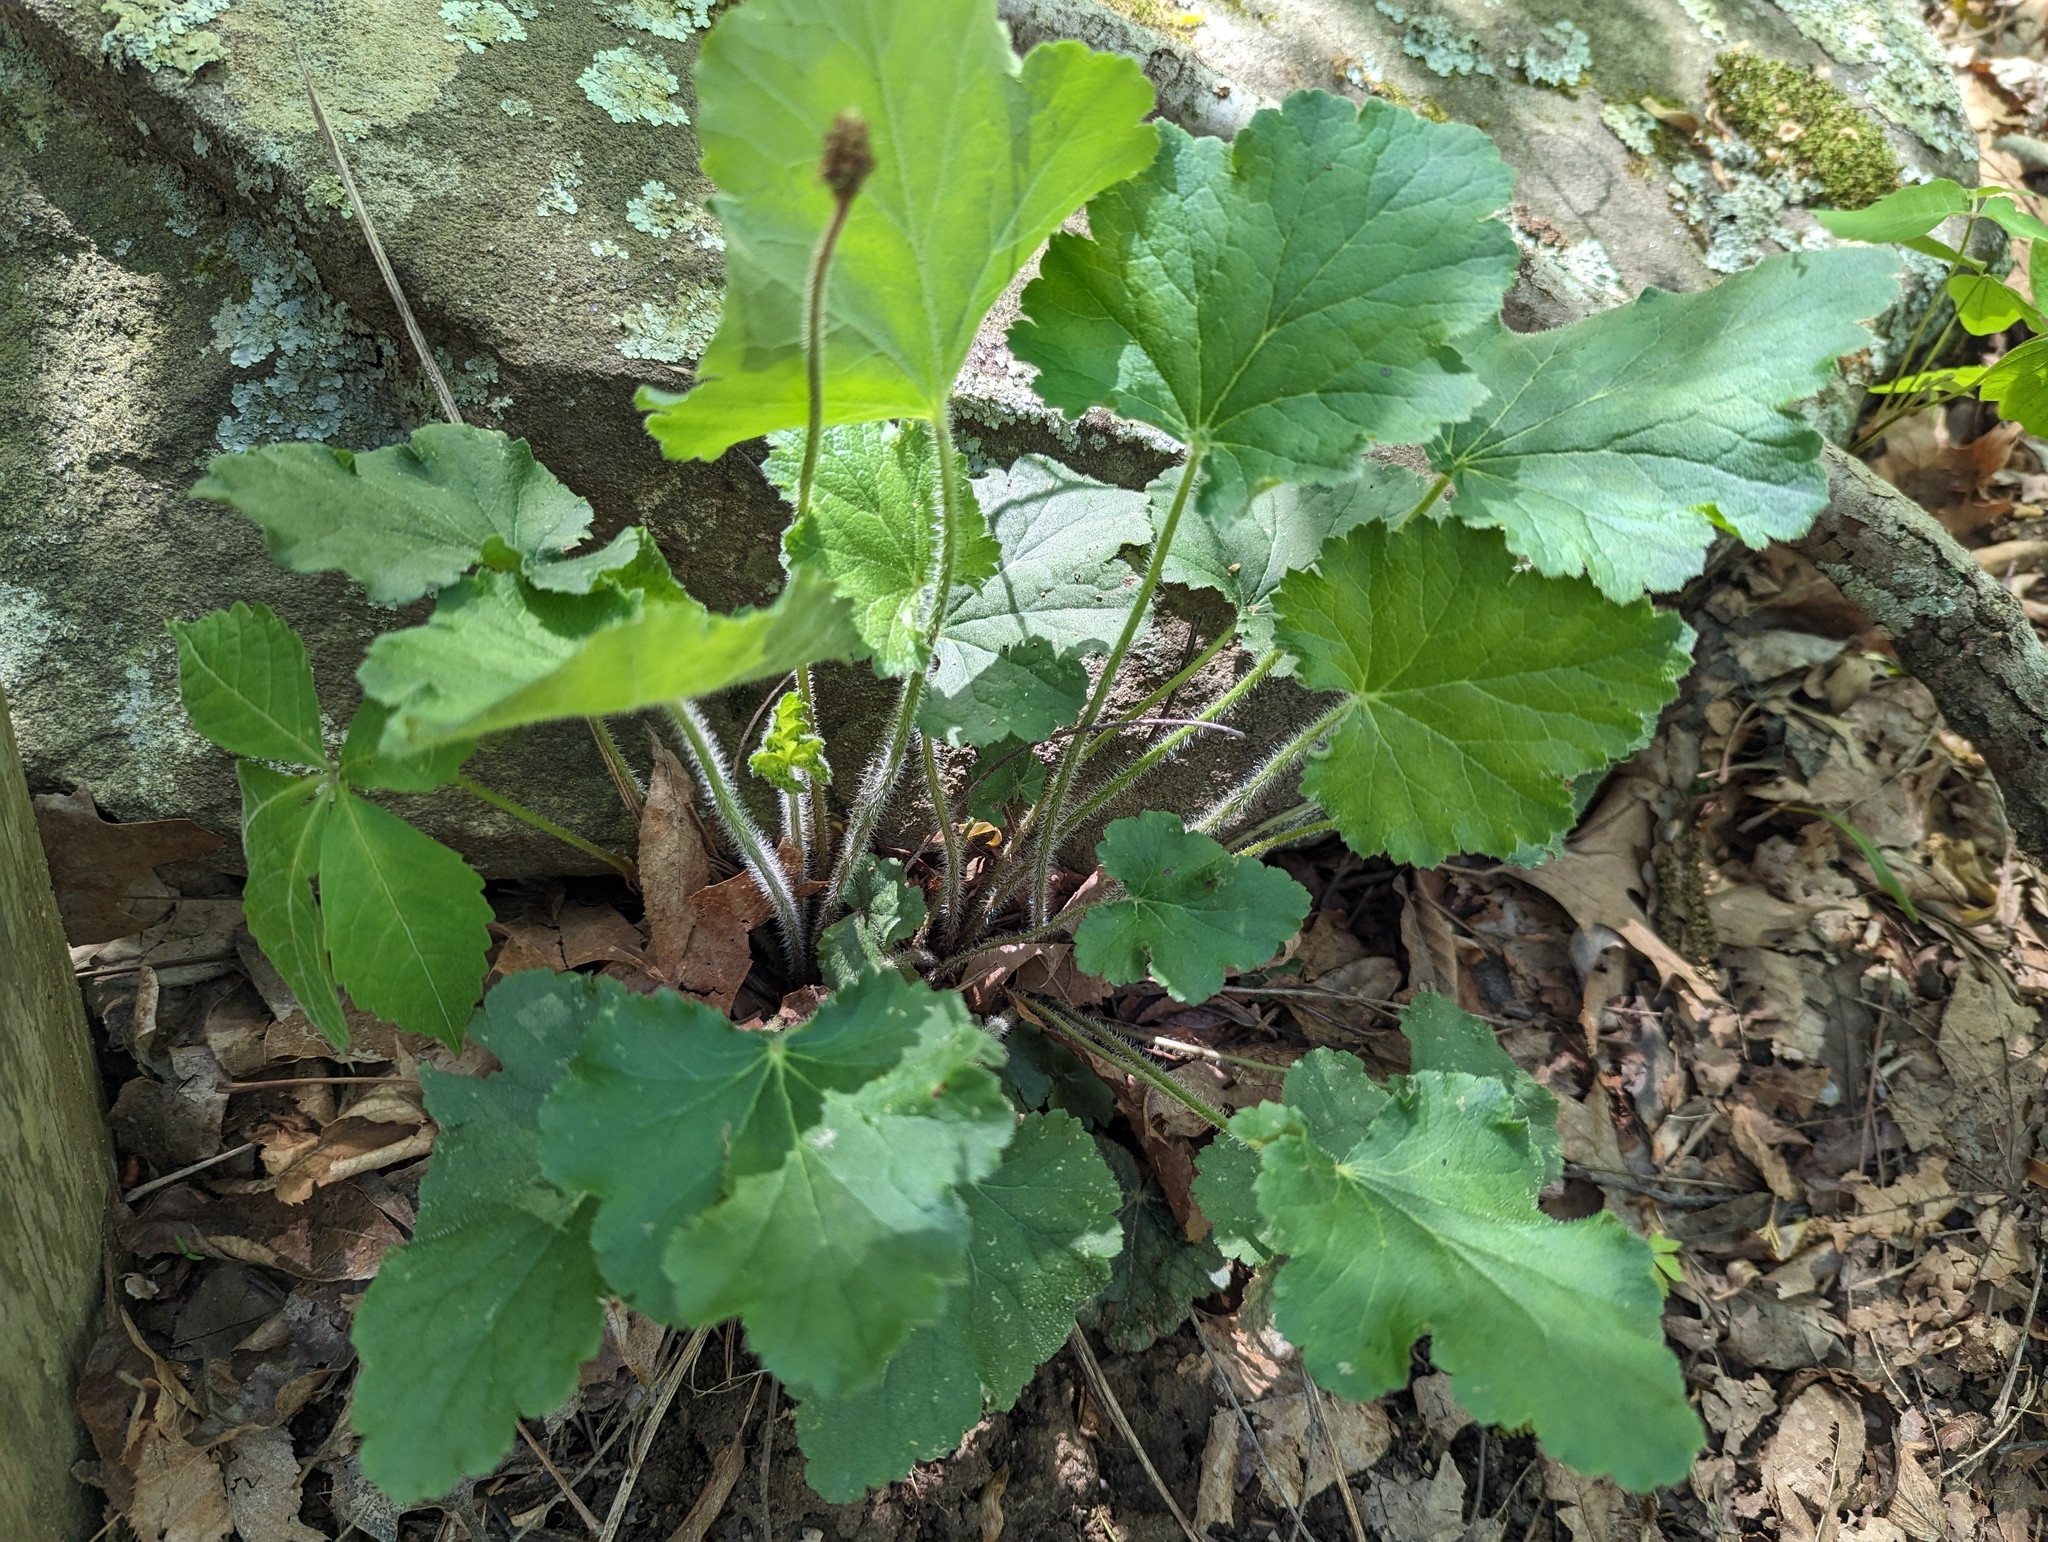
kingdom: Plantae
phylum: Tracheophyta
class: Magnoliopsida
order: Saxifragales
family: Saxifragaceae
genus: Heuchera
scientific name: Heuchera americana
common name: Alumroot
